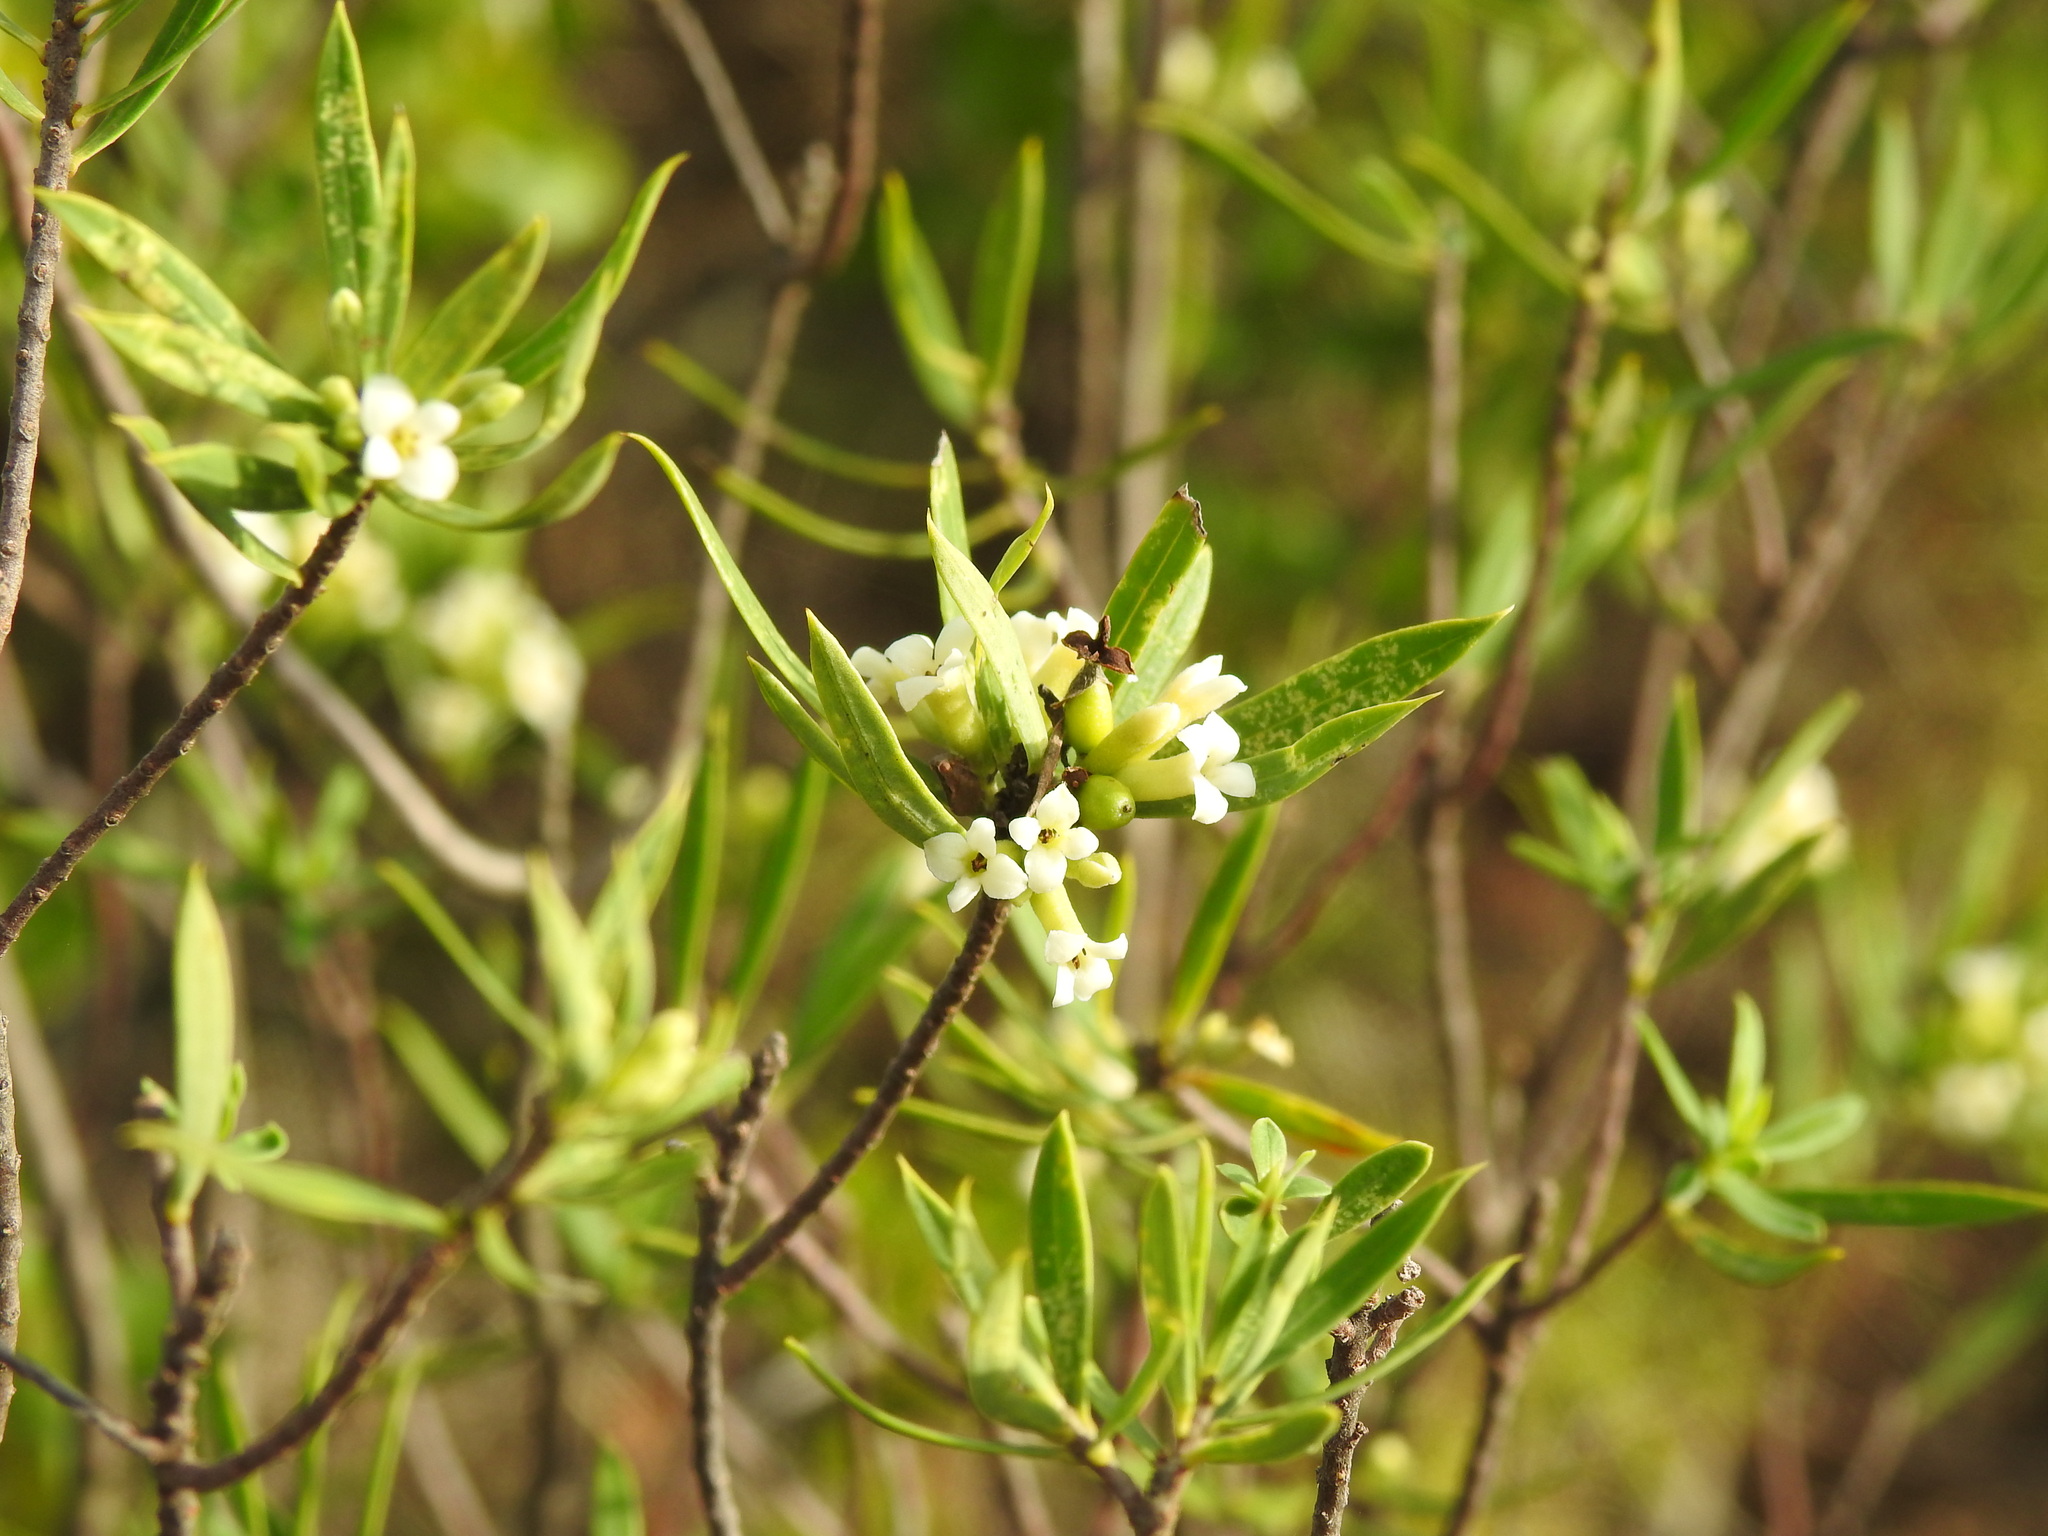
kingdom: Plantae
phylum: Tracheophyta
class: Magnoliopsida
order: Malvales
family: Thymelaeaceae
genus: Daphne
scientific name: Daphne gnidium
